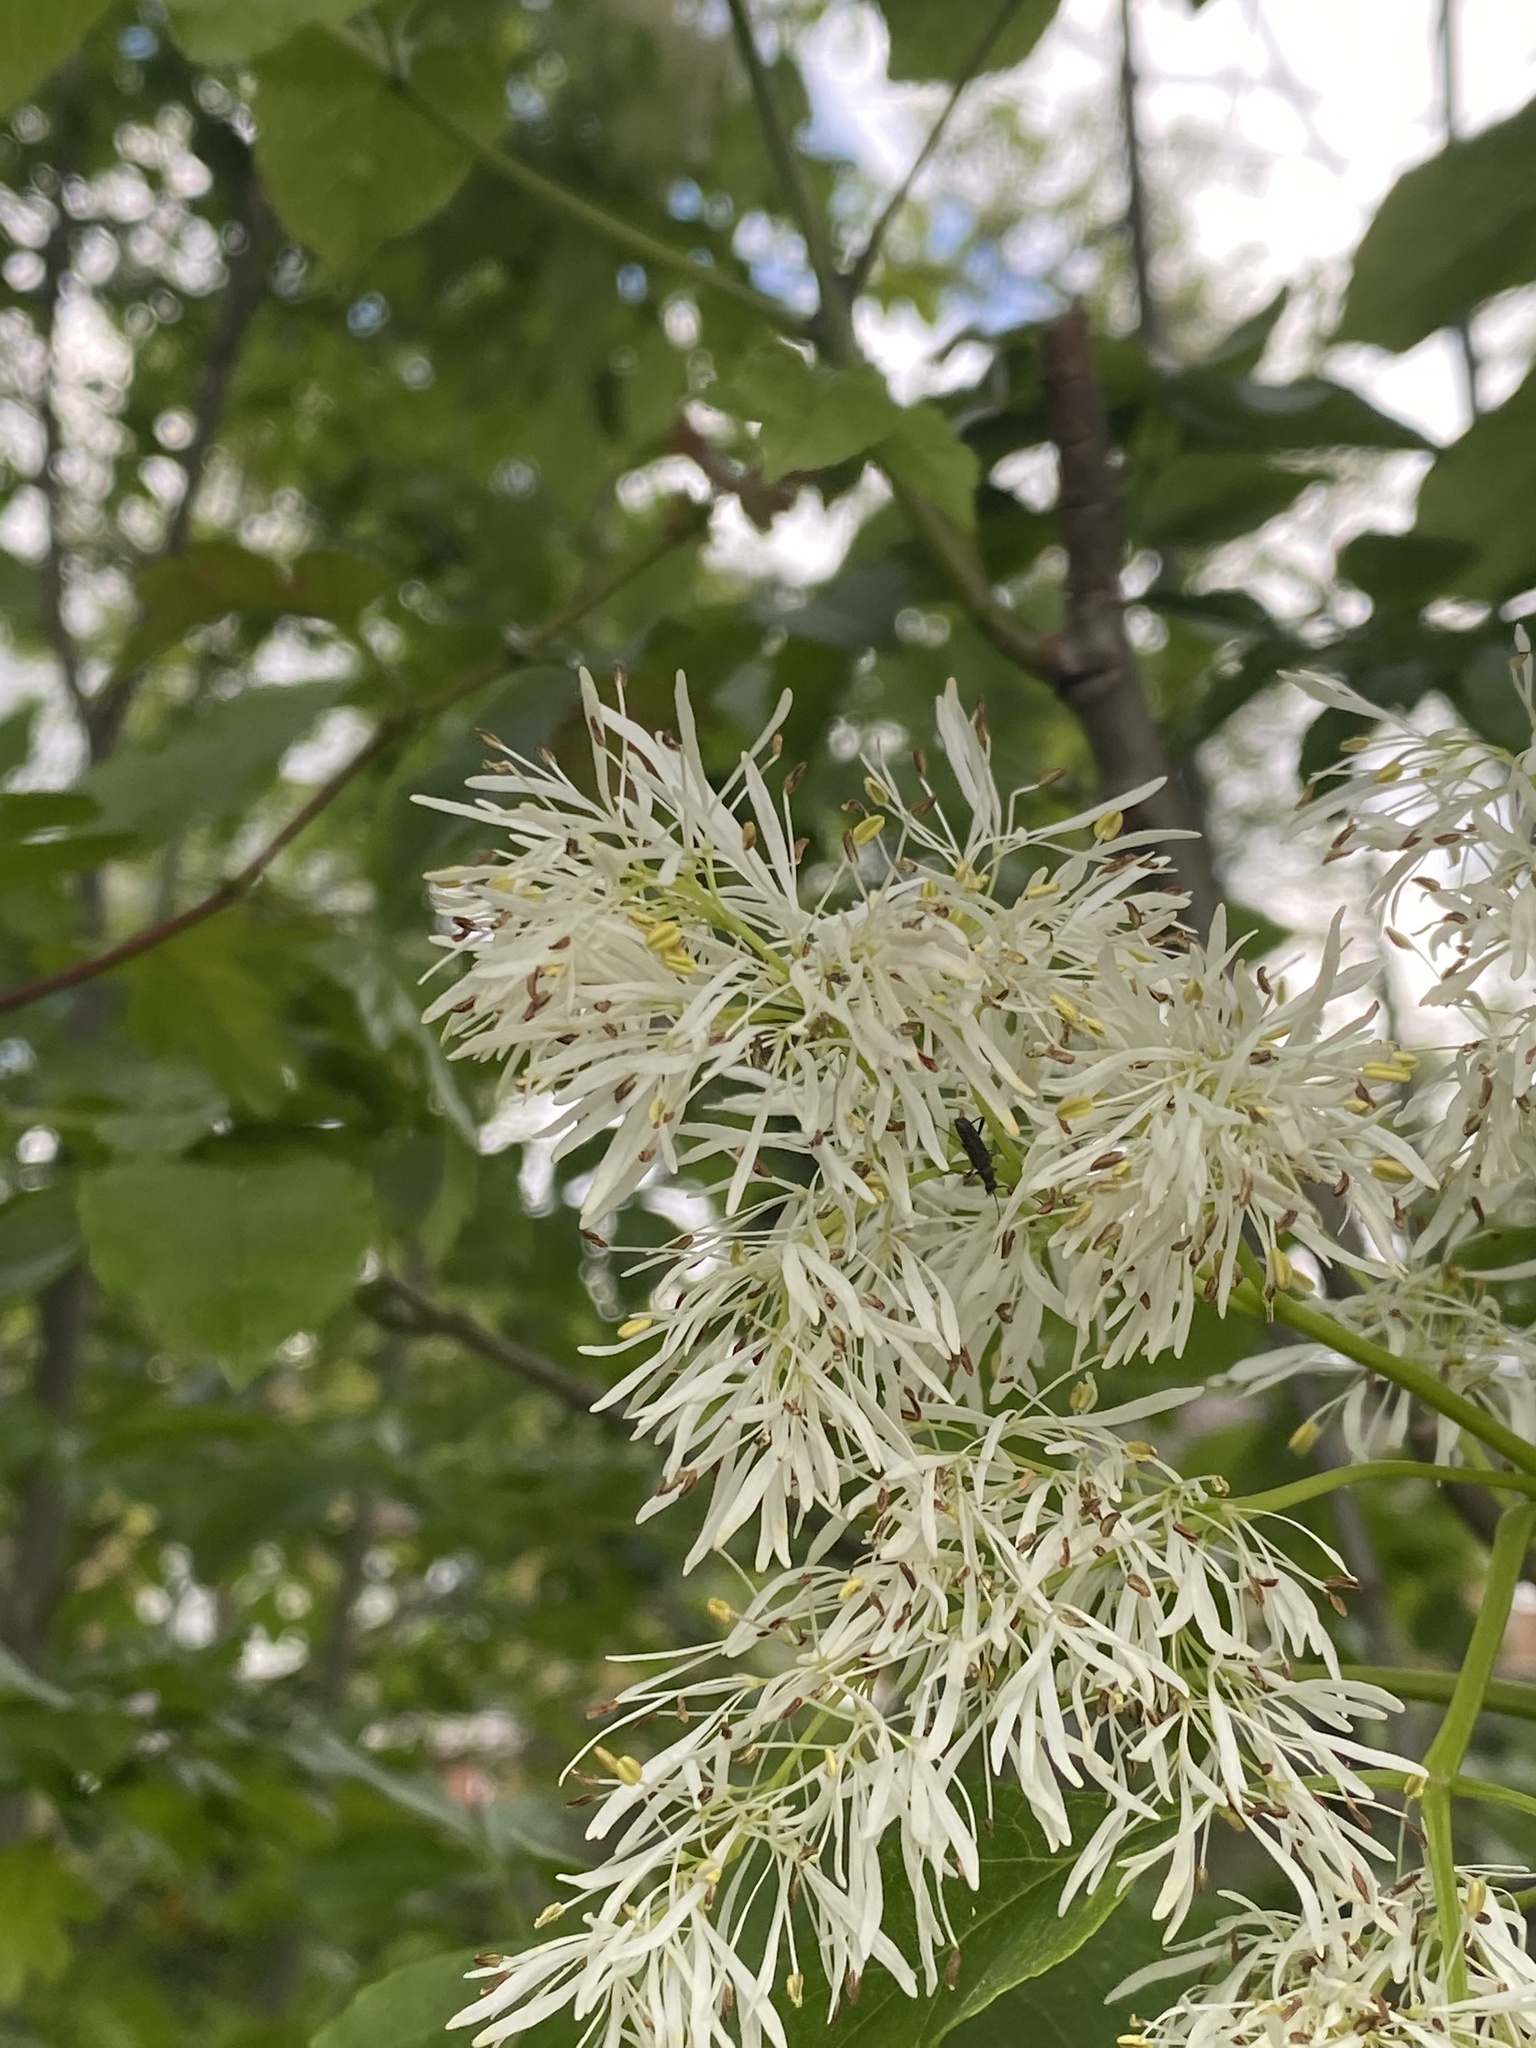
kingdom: Plantae
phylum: Tracheophyta
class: Magnoliopsida
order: Lamiales
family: Oleaceae
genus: Fraxinus
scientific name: Fraxinus ornus
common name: Manna ash
